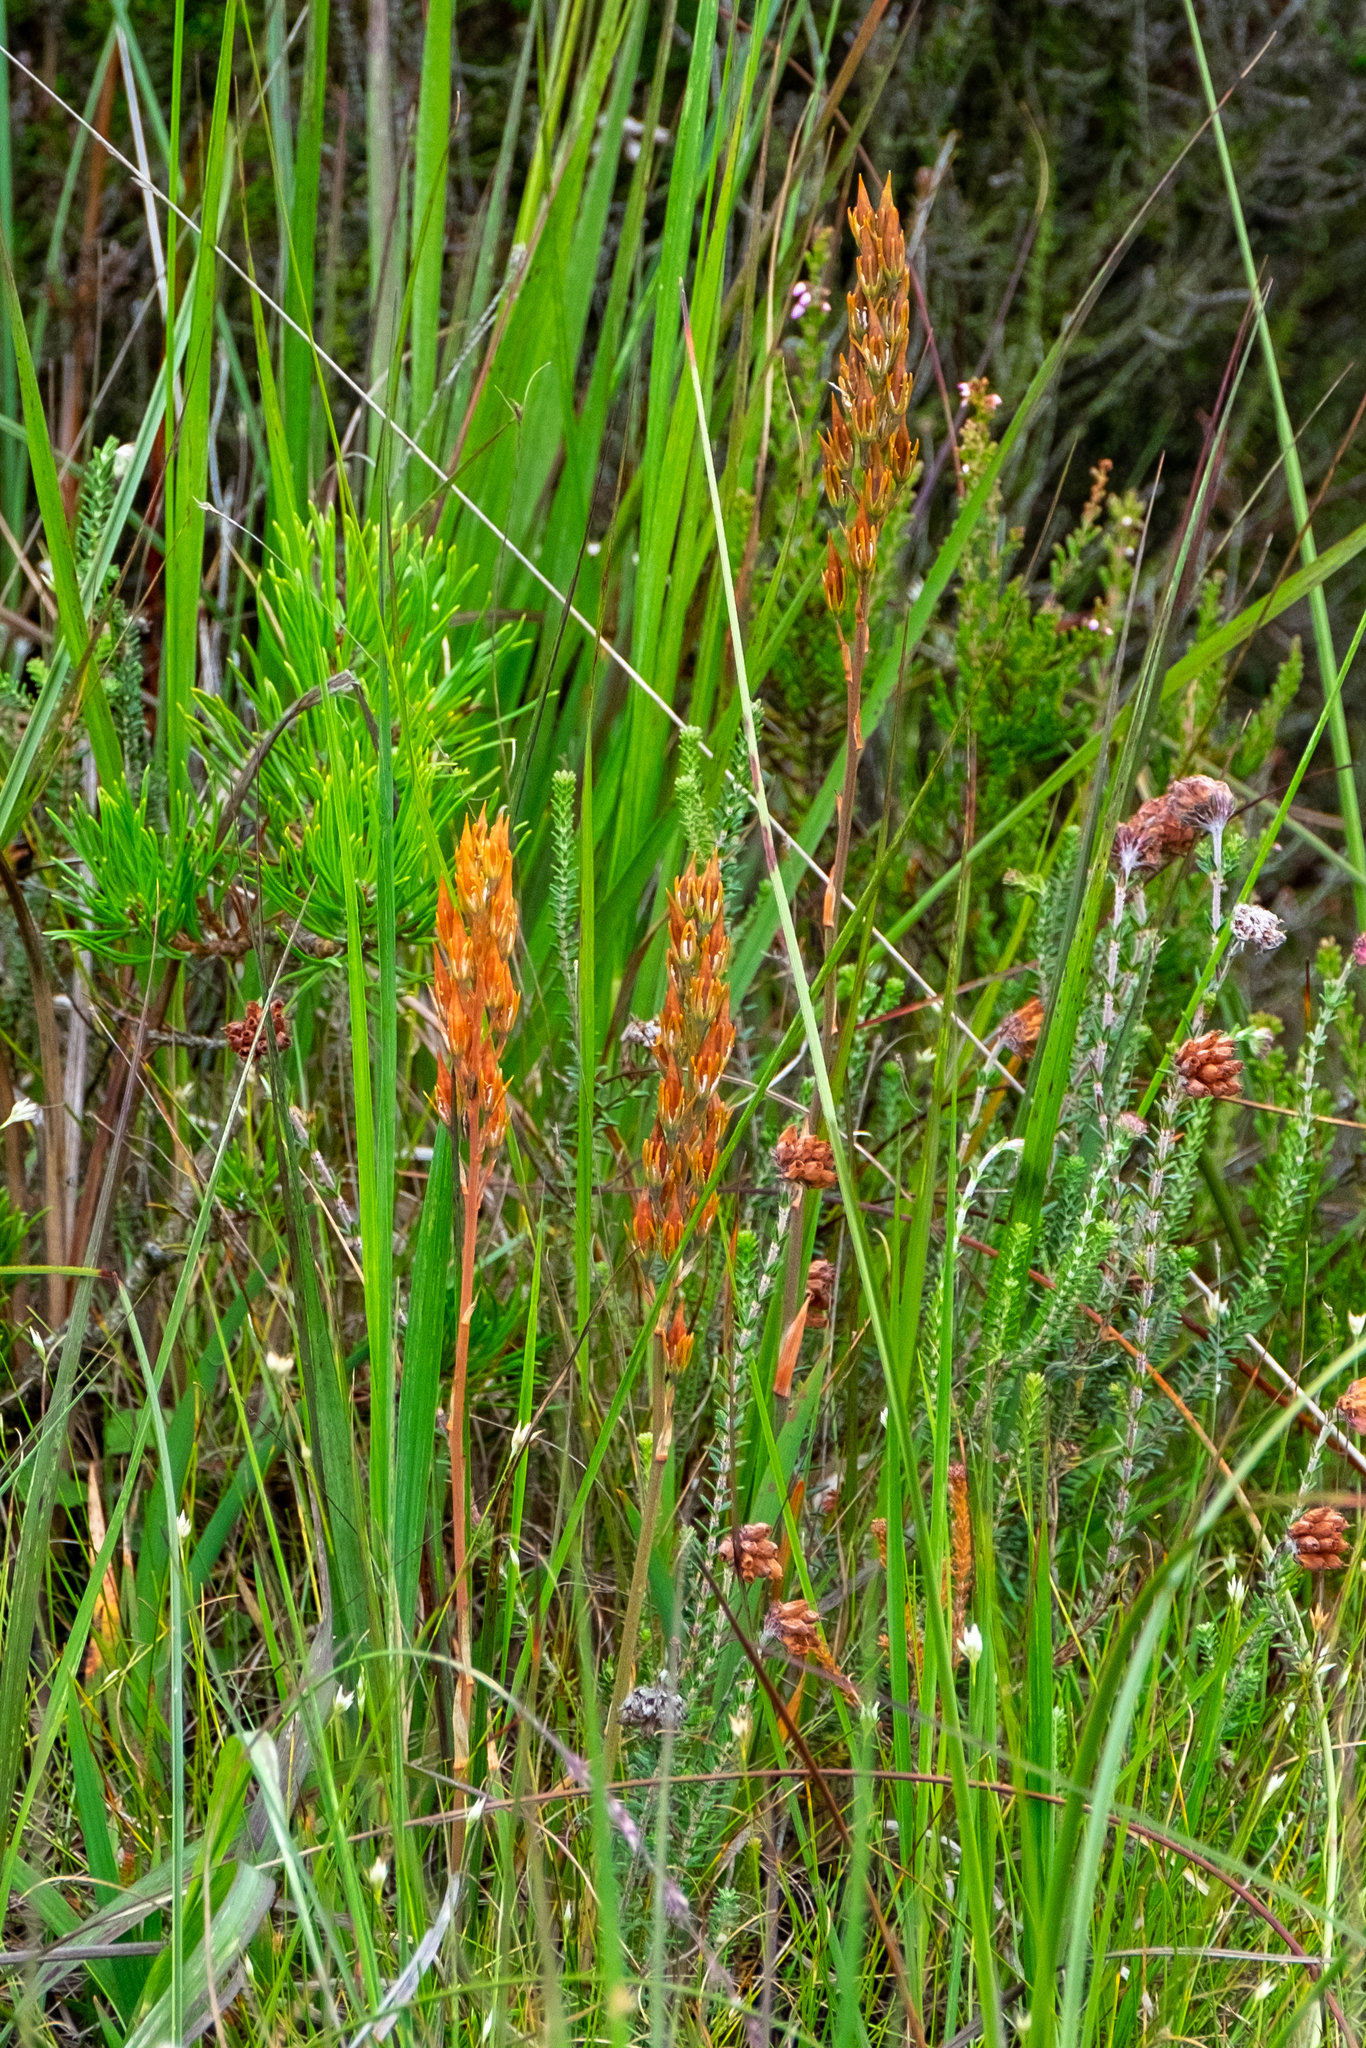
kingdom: Plantae
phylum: Tracheophyta
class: Liliopsida
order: Dioscoreales
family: Nartheciaceae
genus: Narthecium
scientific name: Narthecium ossifragum
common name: Bog asphodel
